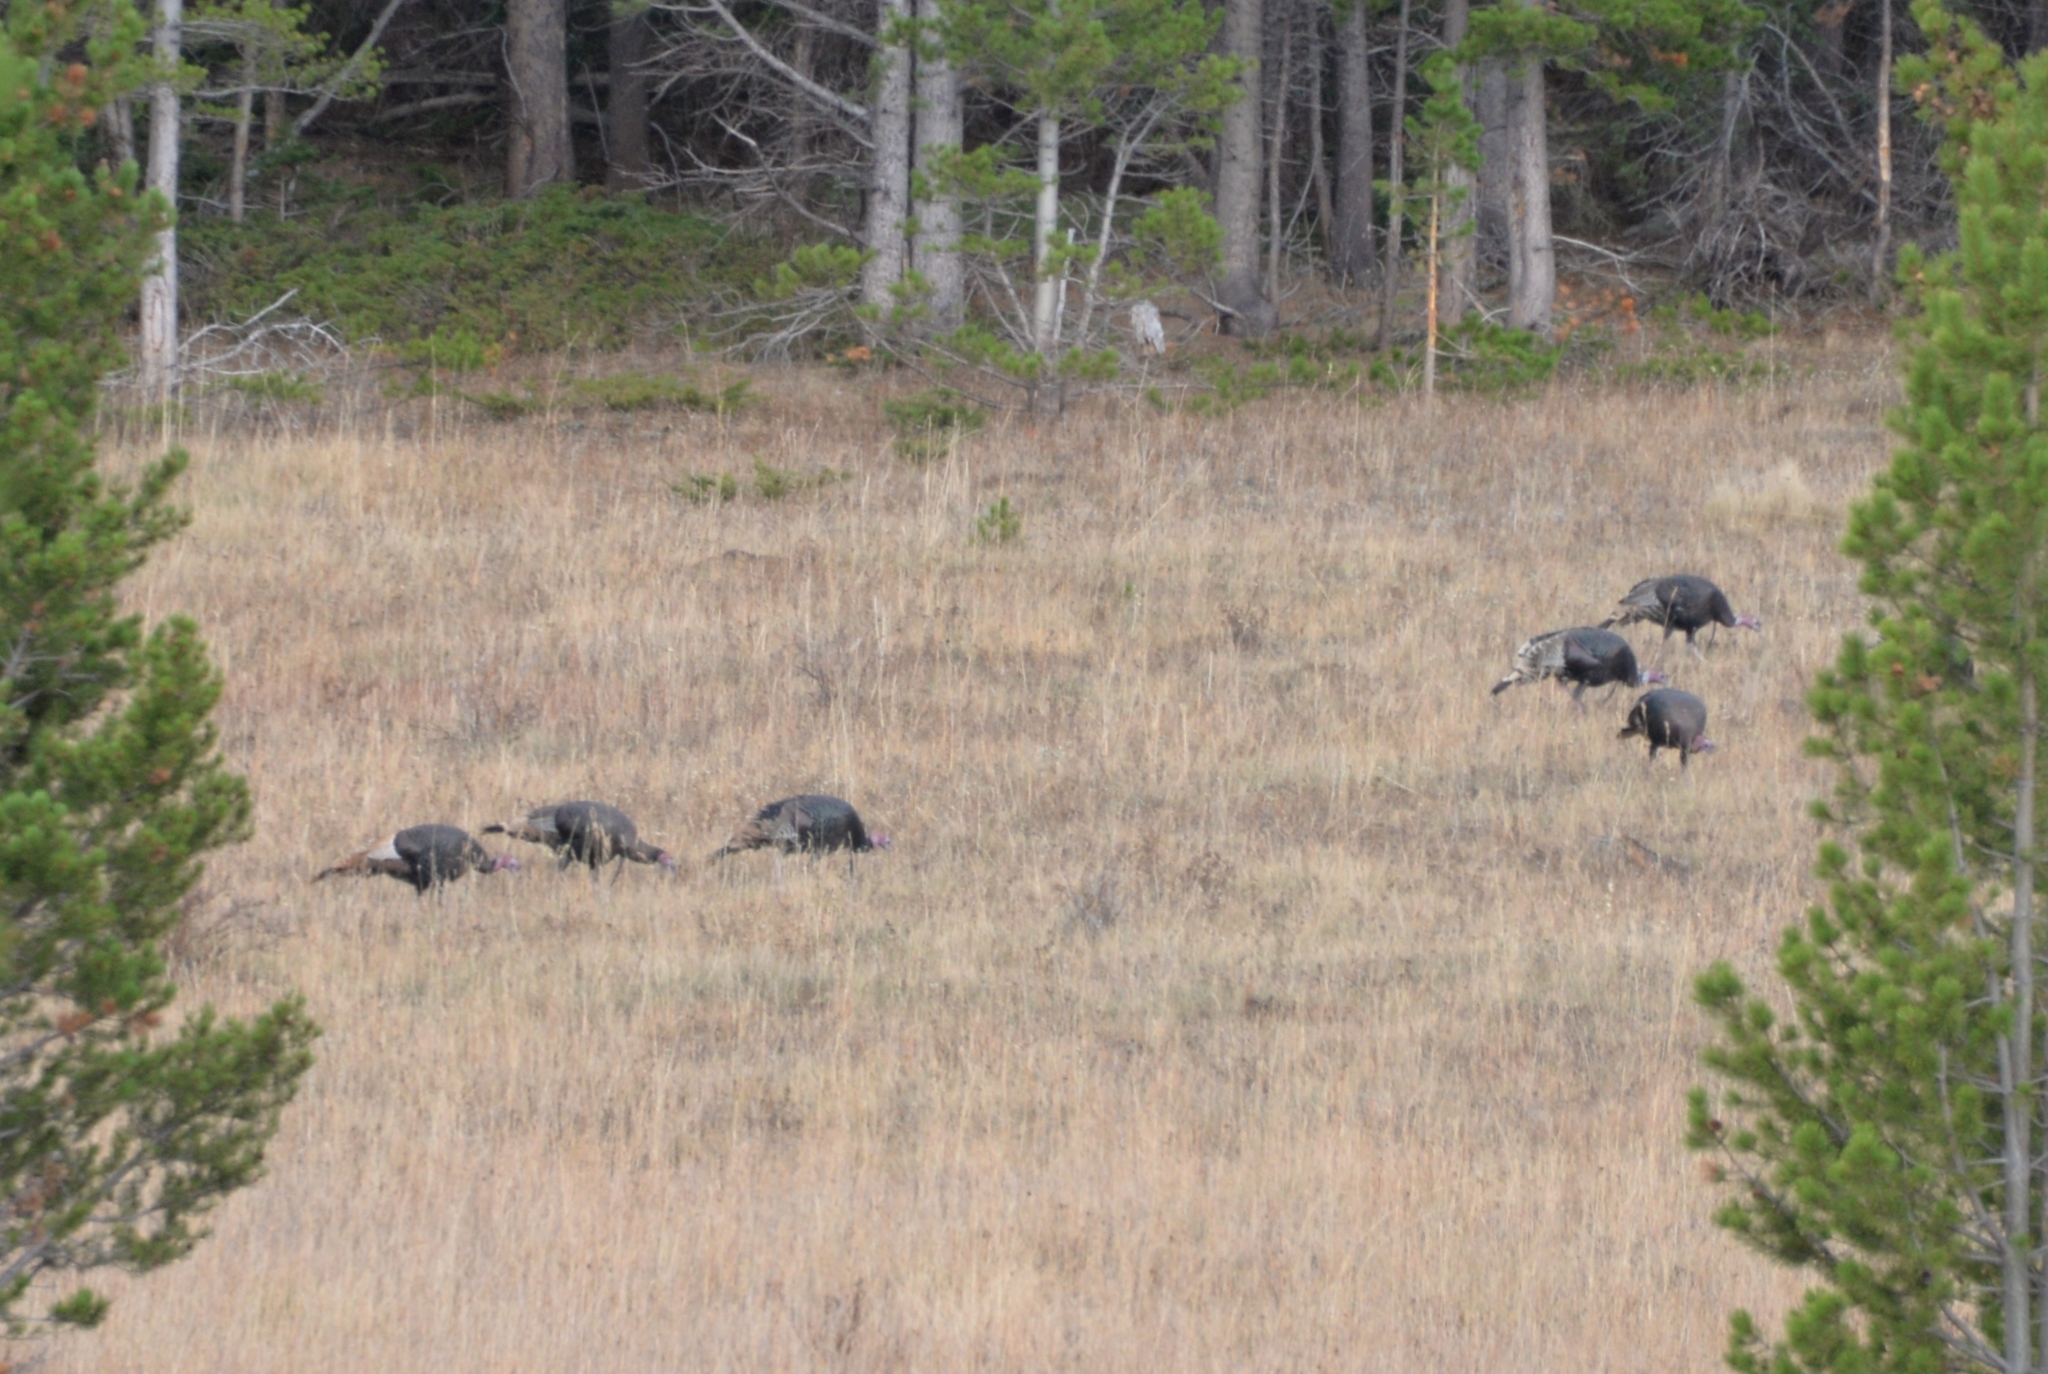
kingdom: Animalia
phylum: Chordata
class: Aves
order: Galliformes
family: Phasianidae
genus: Meleagris
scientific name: Meleagris gallopavo
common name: Wild turkey
